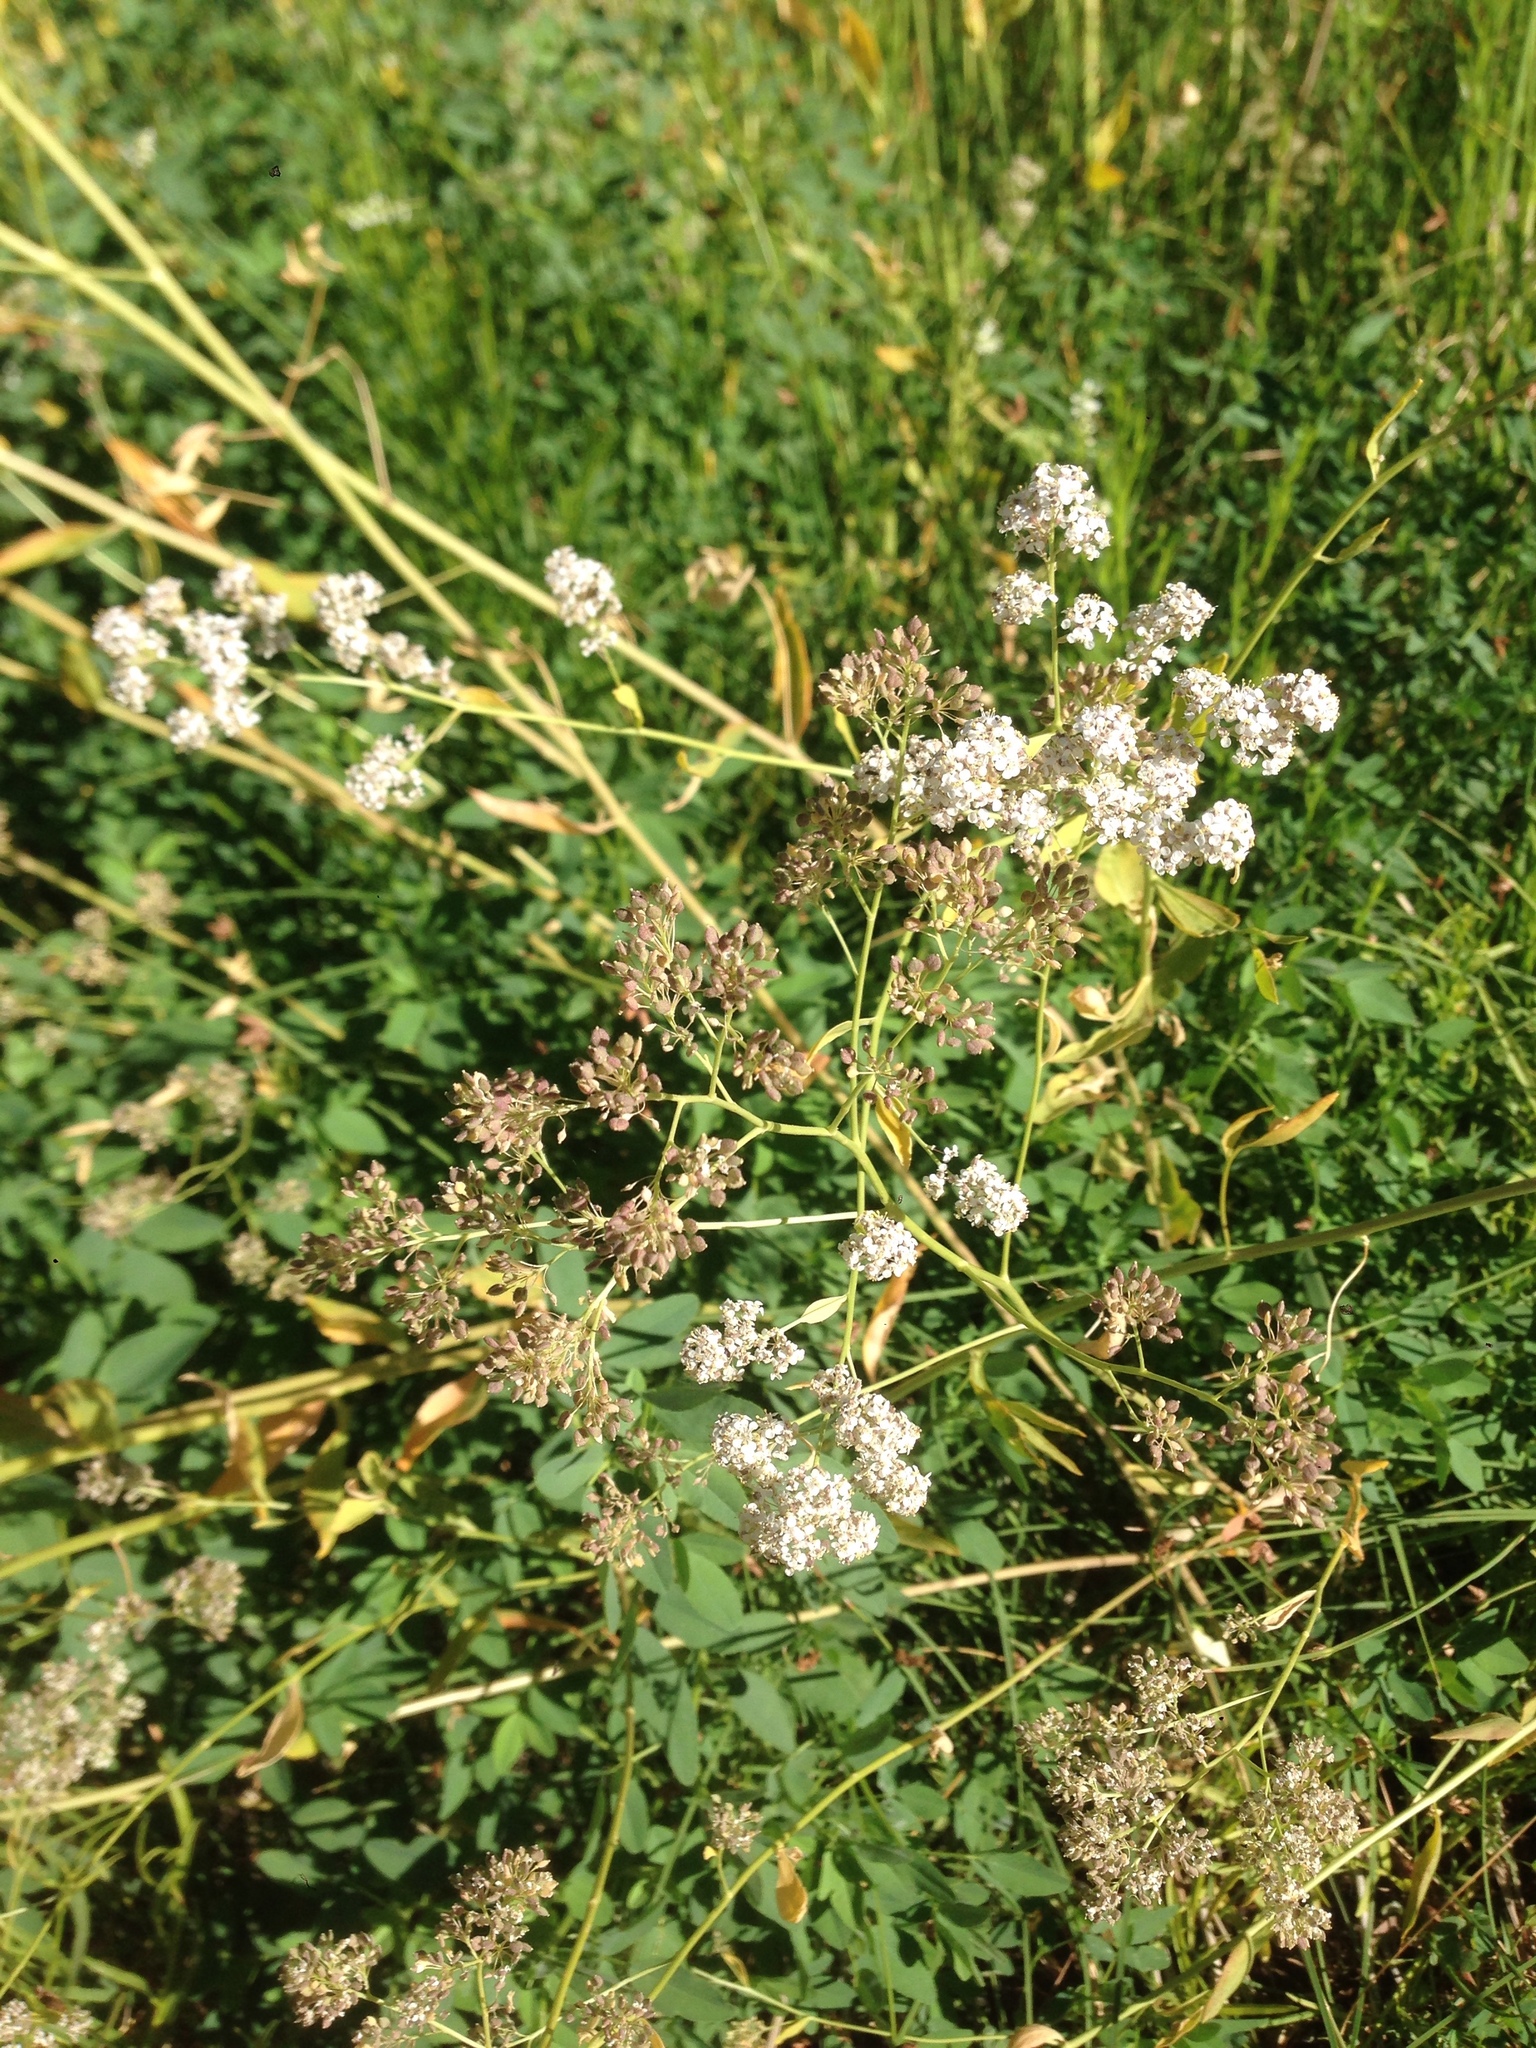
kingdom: Plantae
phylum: Tracheophyta
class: Magnoliopsida
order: Brassicales
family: Brassicaceae
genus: Lepidium
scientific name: Lepidium latifolium
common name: Dittander
